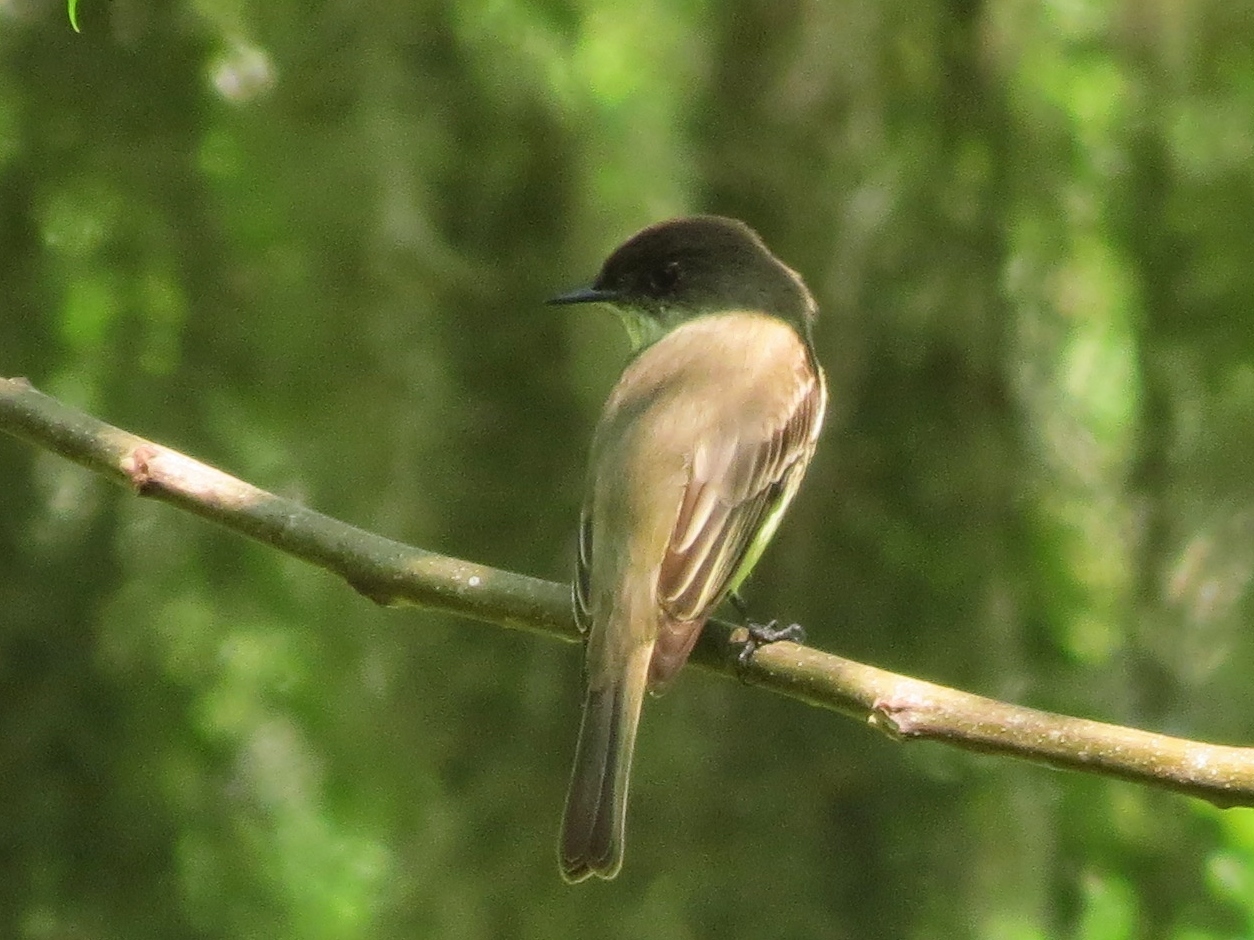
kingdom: Animalia
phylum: Chordata
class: Aves
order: Passeriformes
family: Tyrannidae
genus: Sayornis
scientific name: Sayornis phoebe
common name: Eastern phoebe
